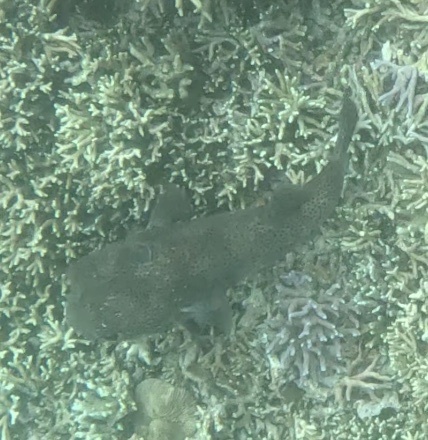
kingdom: Animalia
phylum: Chordata
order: Tetraodontiformes
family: Diodontidae
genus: Diodon
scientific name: Diodon hystrix
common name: Giant porcupinefish
